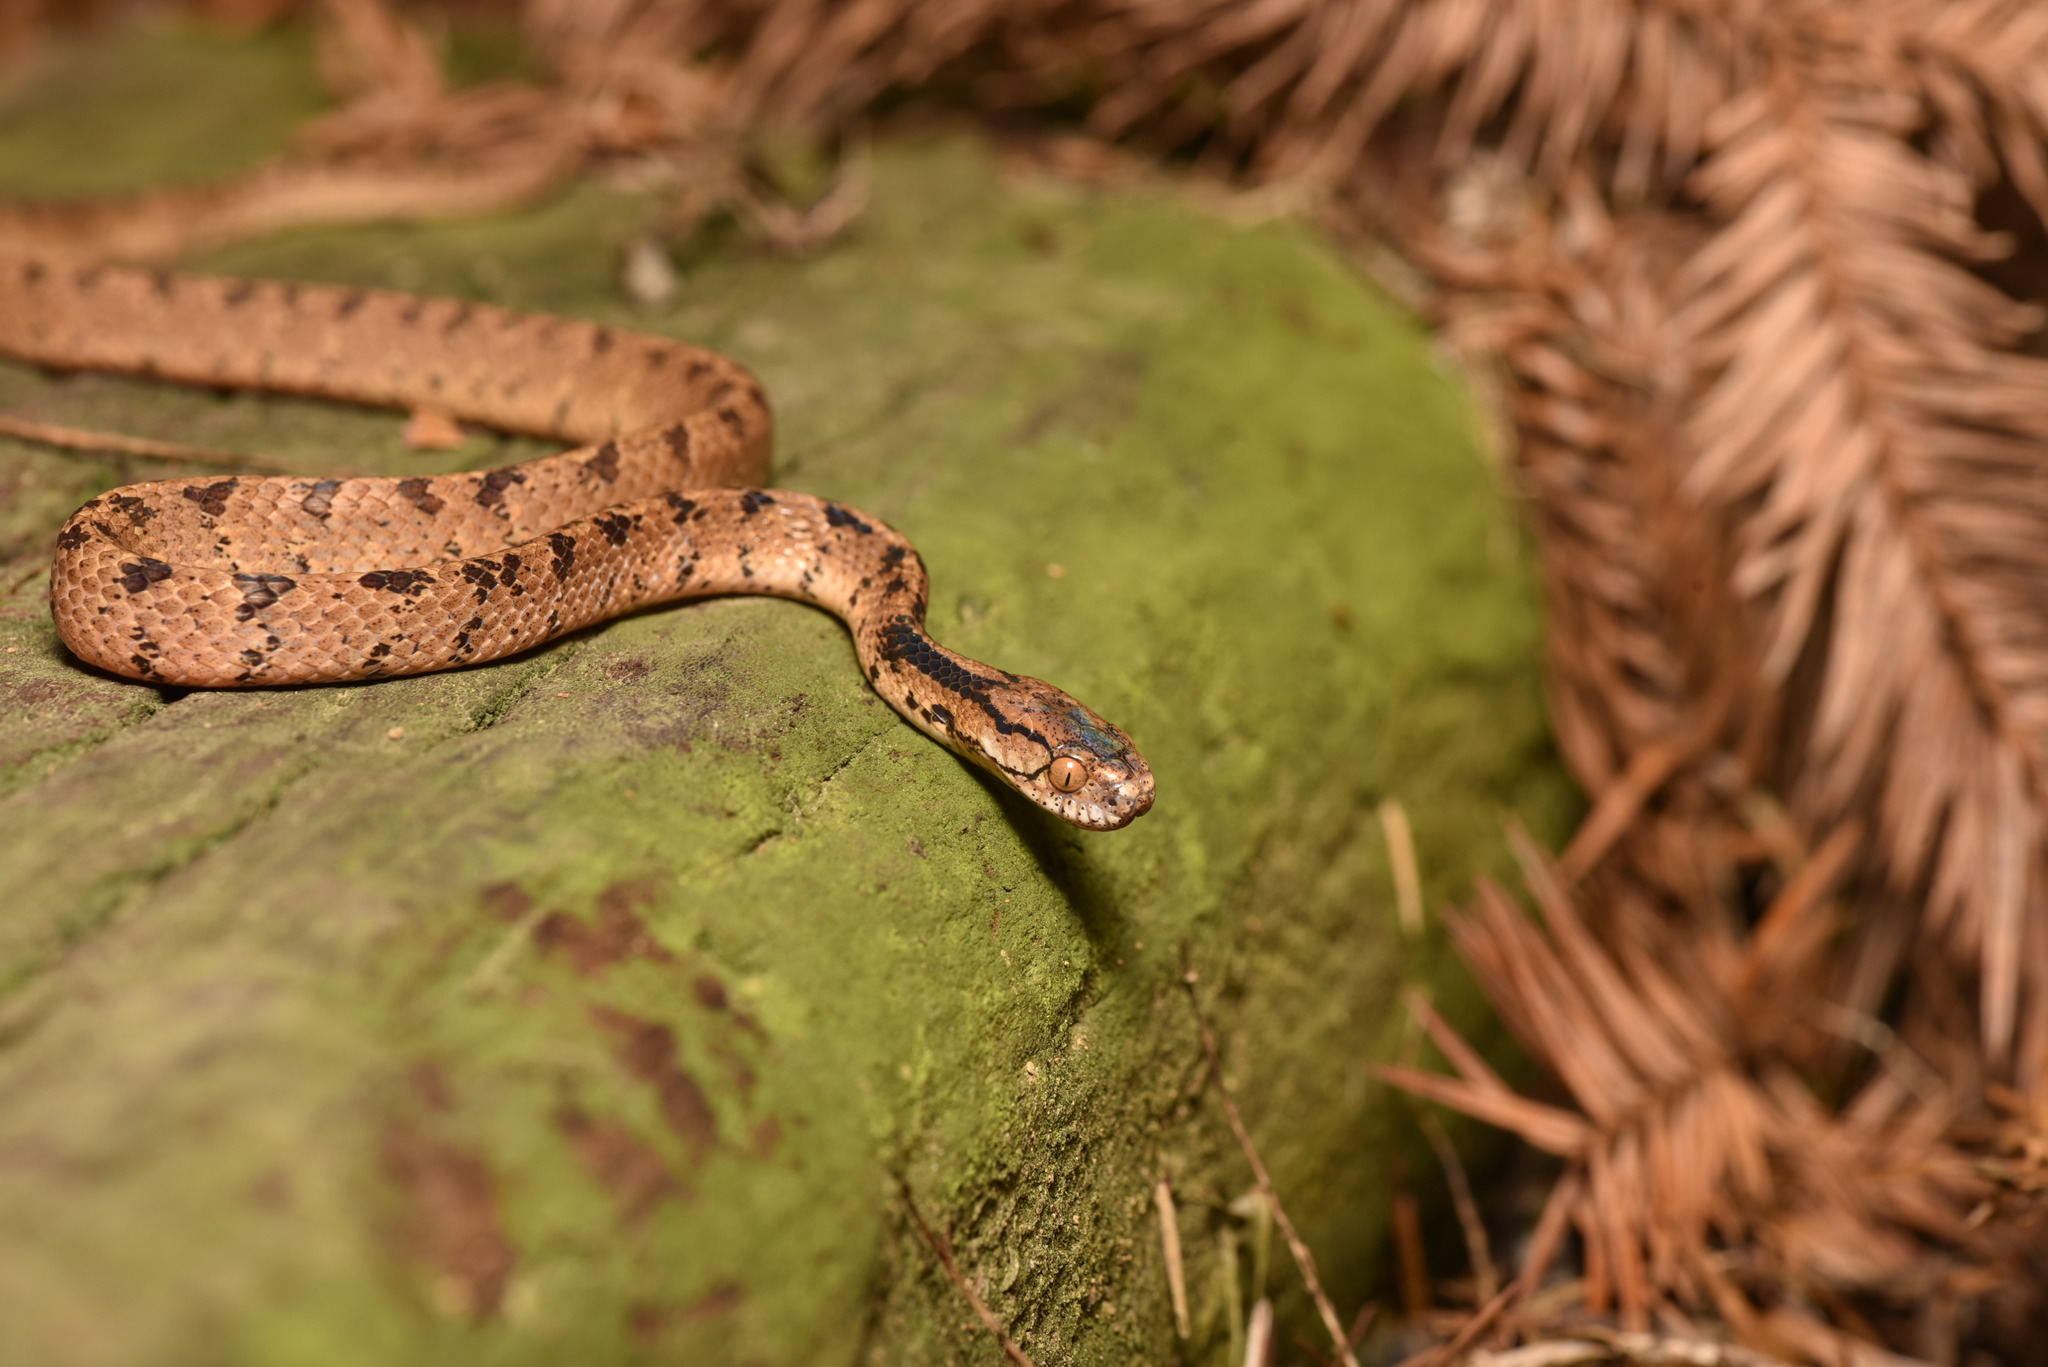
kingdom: Animalia
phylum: Chordata
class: Squamata
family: Pareidae
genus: Pareas
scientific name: Pareas komaii
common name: Formosa slug snake
